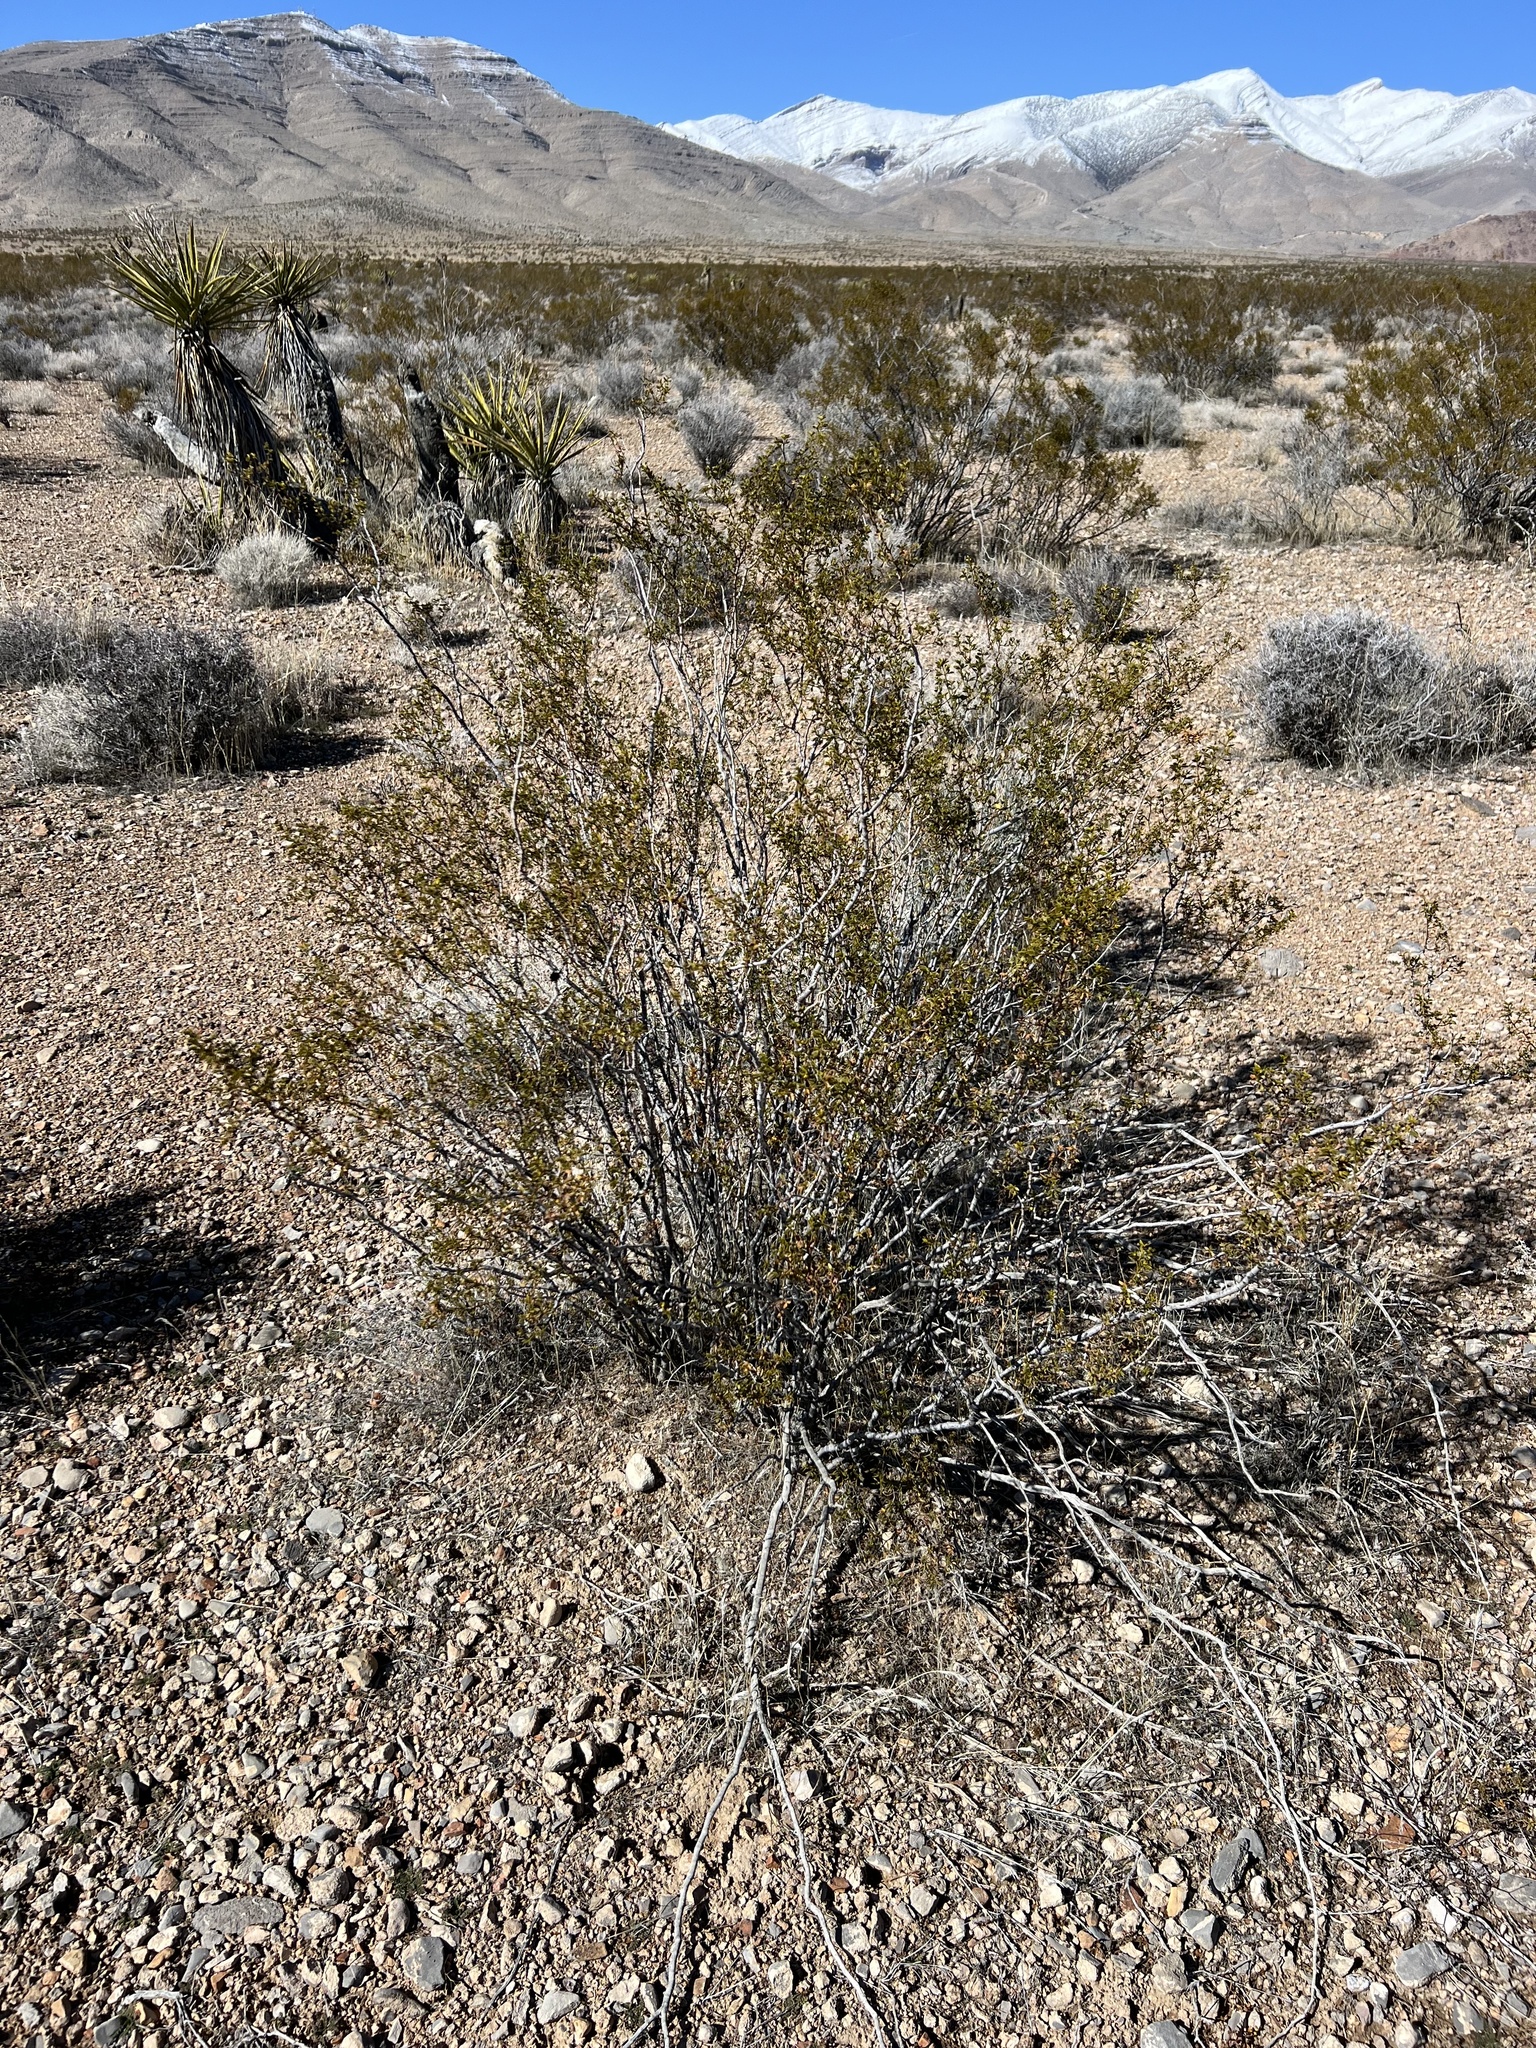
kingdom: Plantae
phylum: Tracheophyta
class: Magnoliopsida
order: Zygophyllales
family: Zygophyllaceae
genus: Larrea
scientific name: Larrea tridentata
